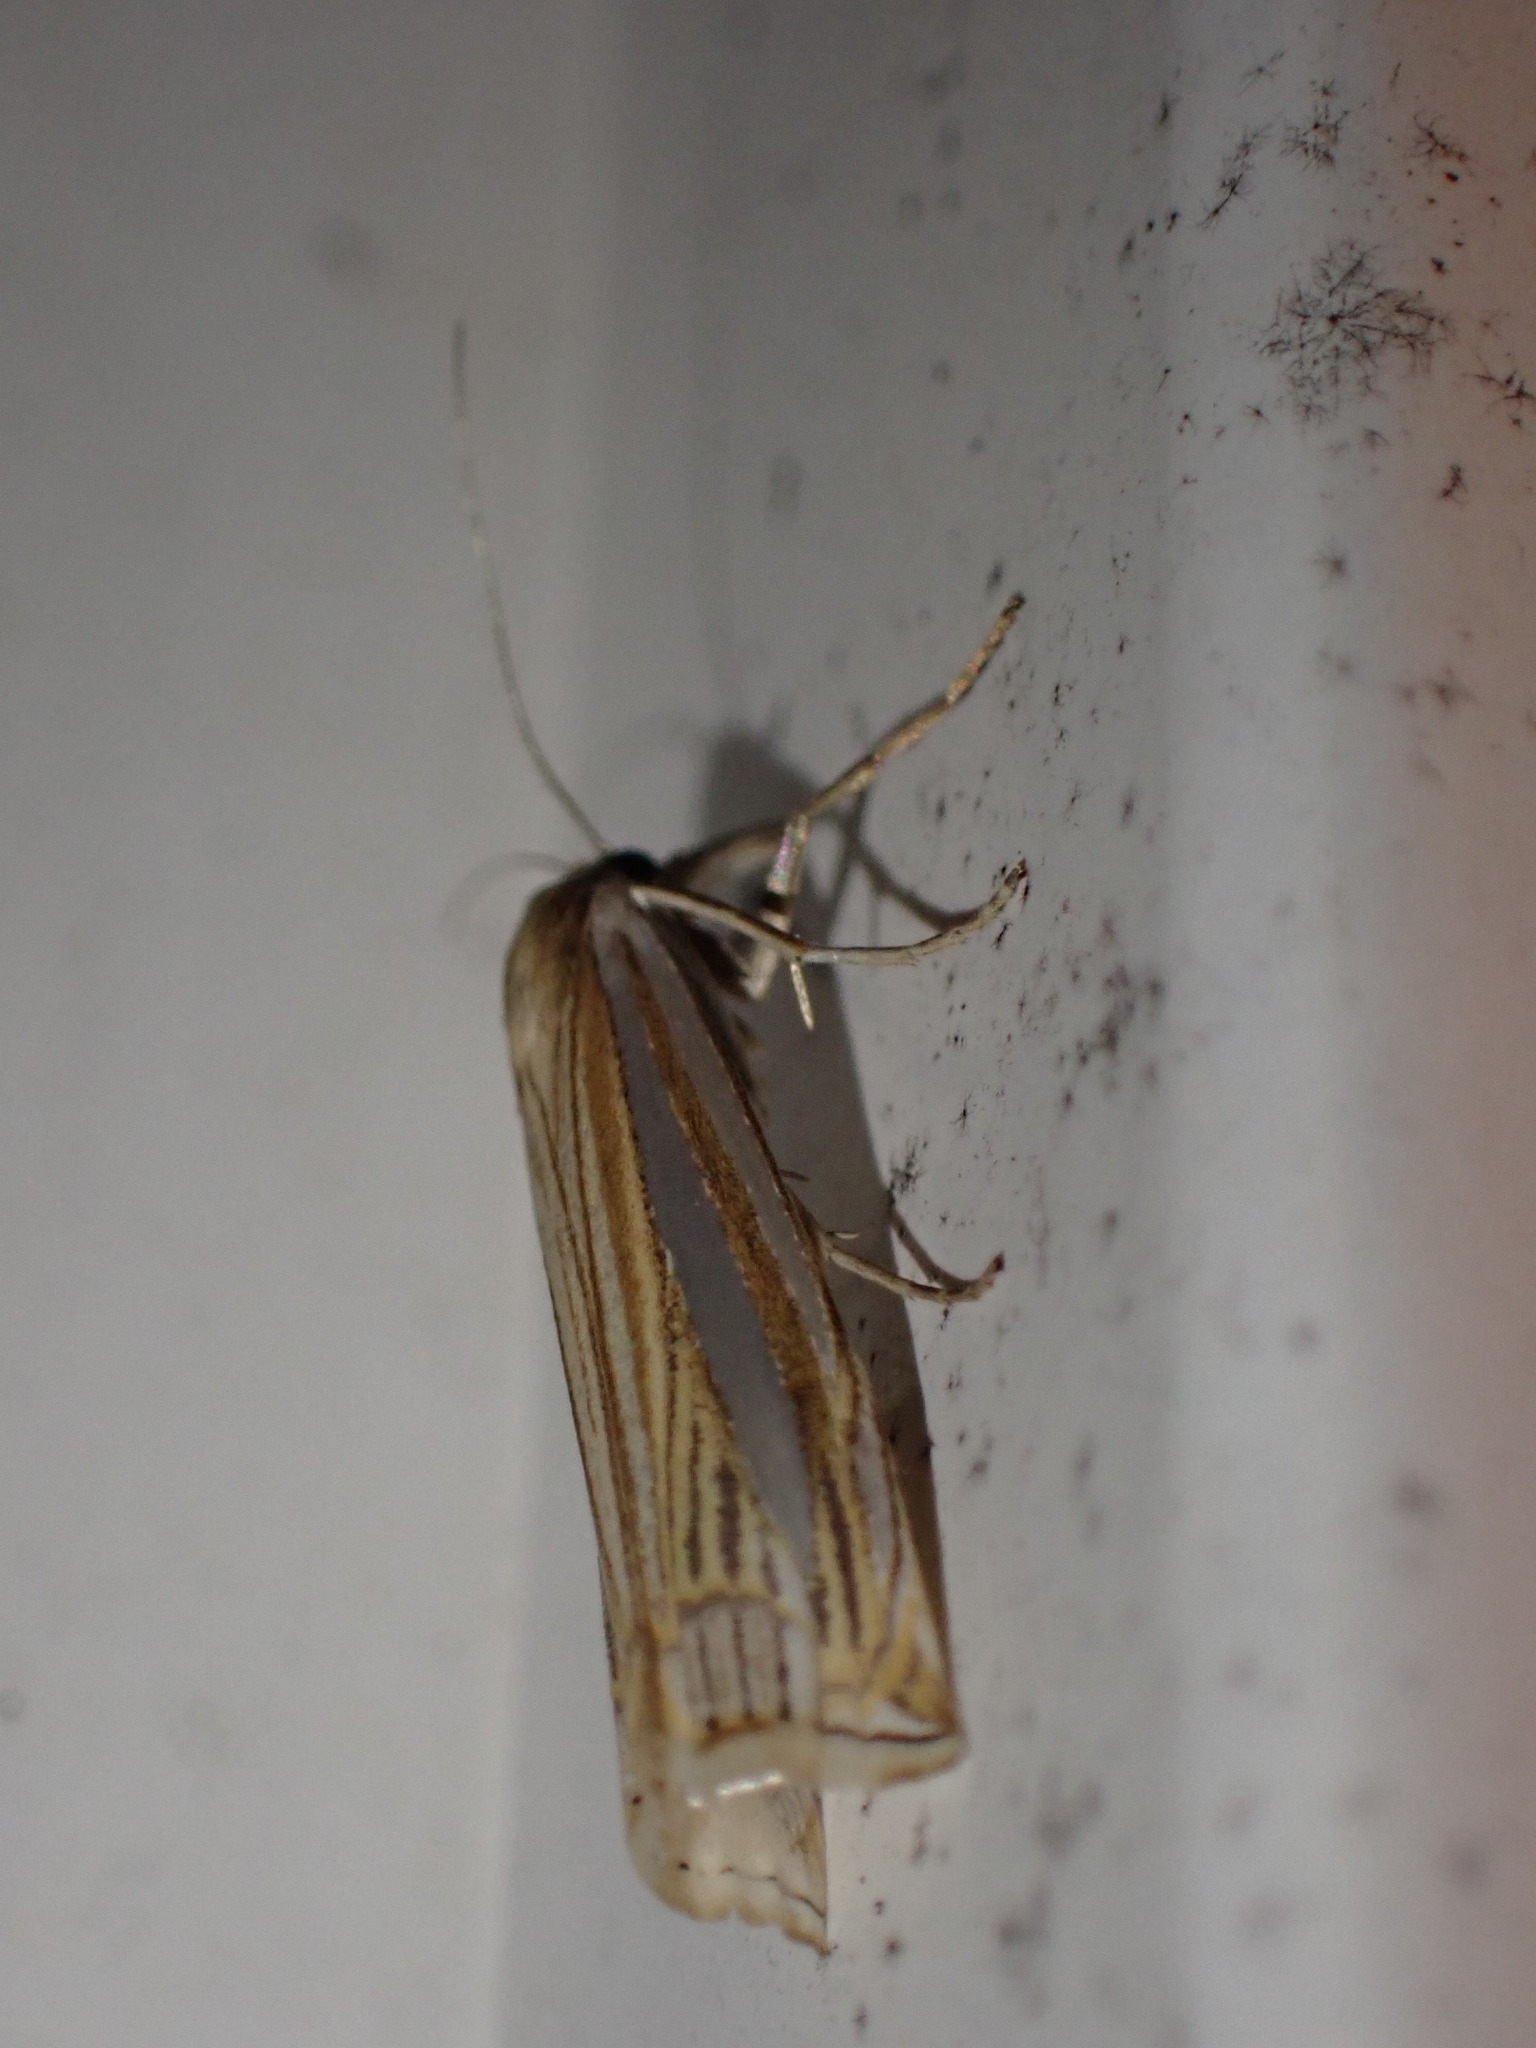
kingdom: Animalia
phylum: Arthropoda
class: Insecta
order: Lepidoptera
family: Crambidae
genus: Crambus
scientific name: Crambus laqueatellus
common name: Eastern grass-veneer
